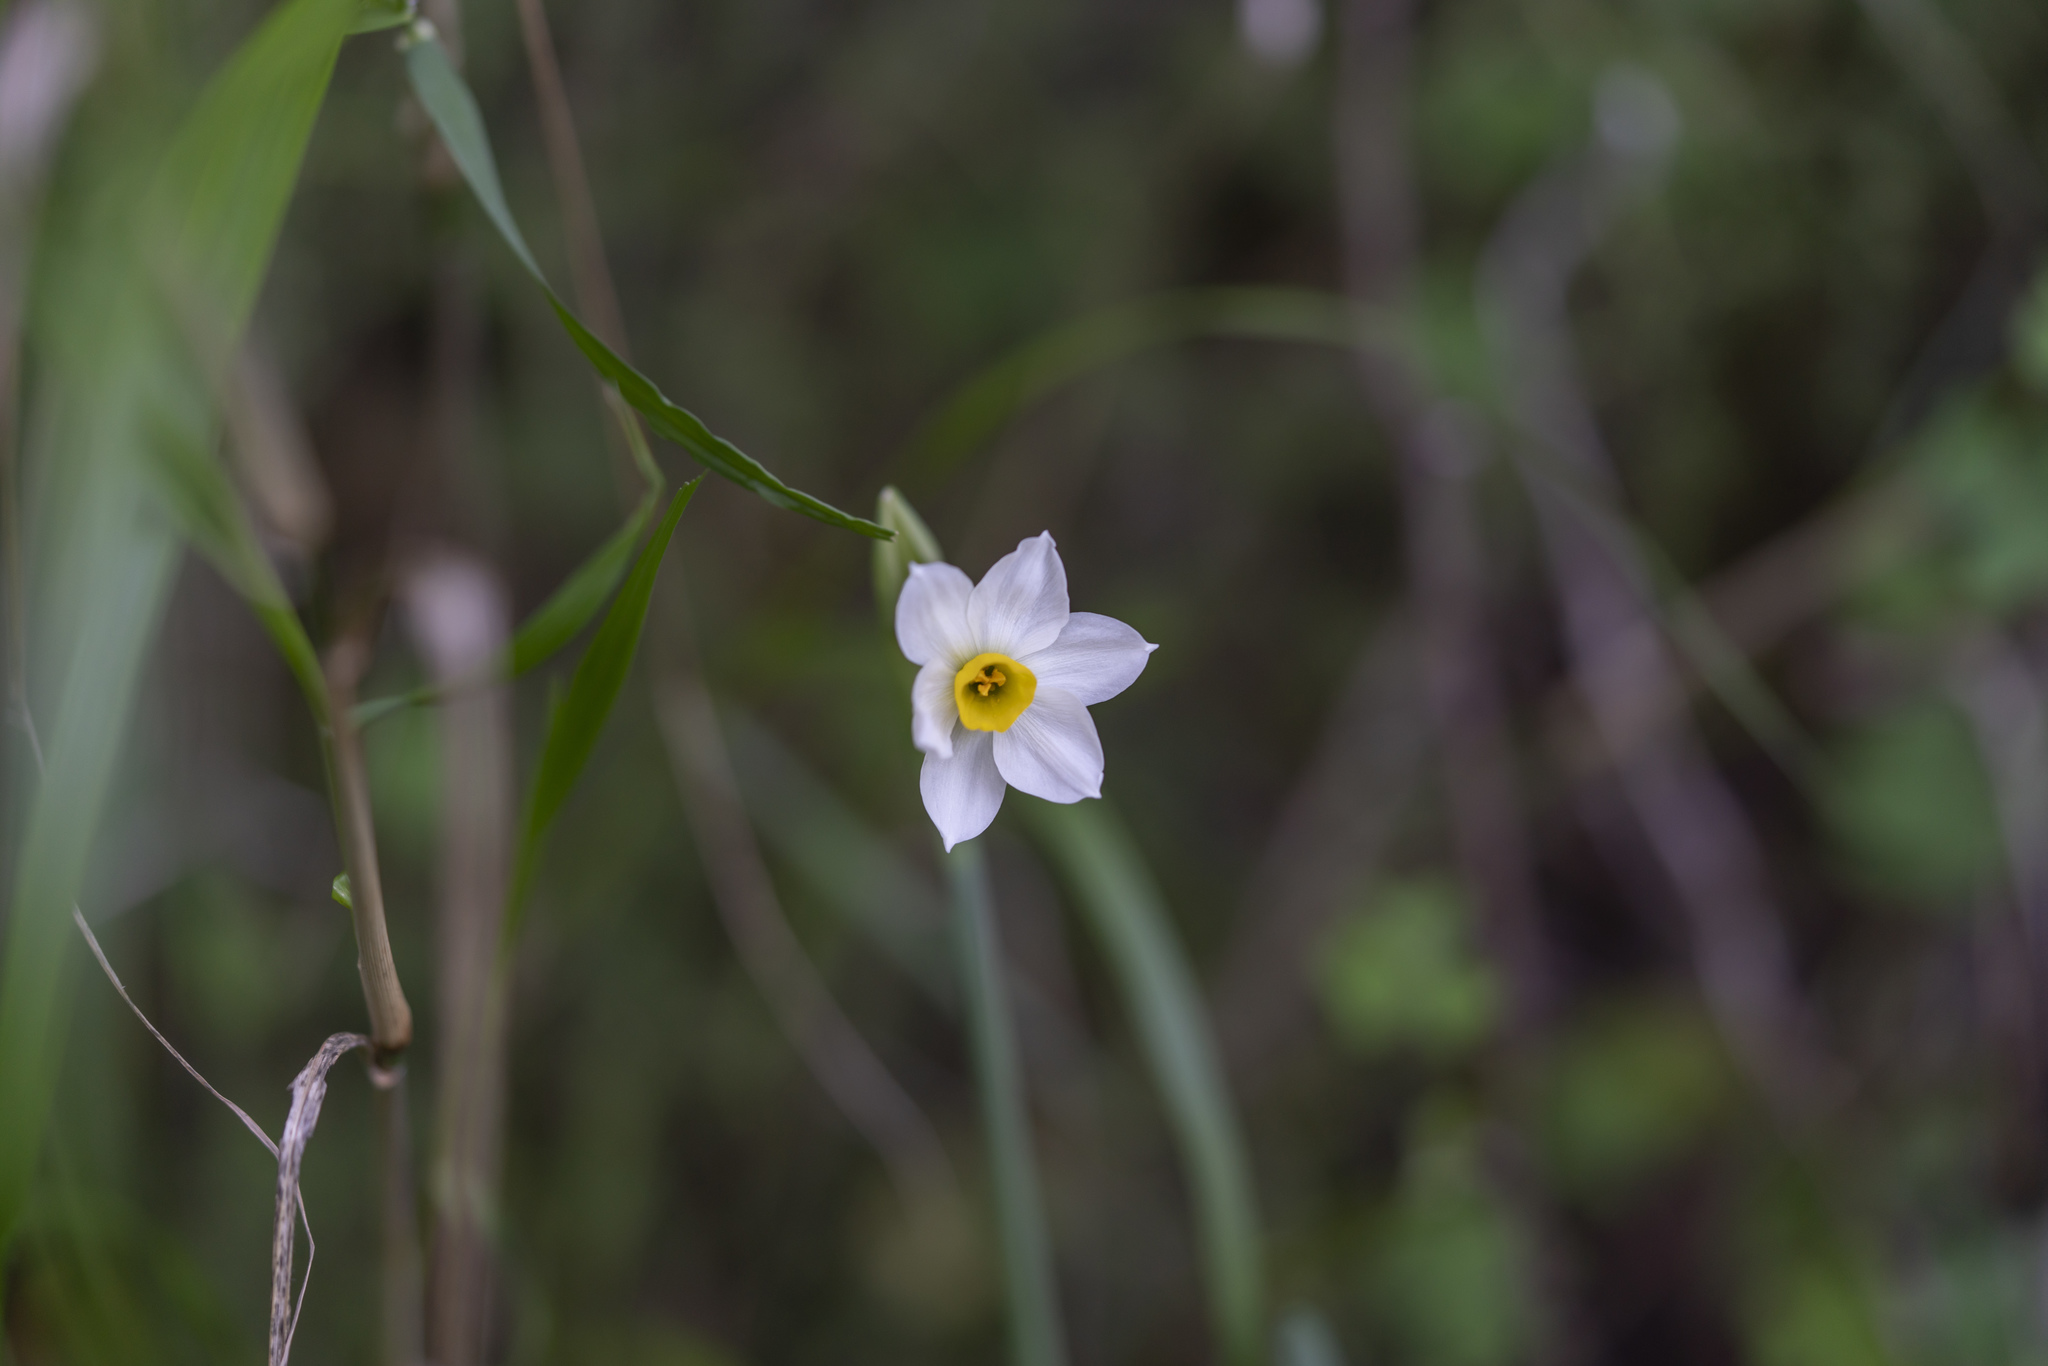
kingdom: Plantae
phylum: Tracheophyta
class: Liliopsida
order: Asparagales
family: Amaryllidaceae
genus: Narcissus
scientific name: Narcissus tazetta
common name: Bunch-flowered daffodil
